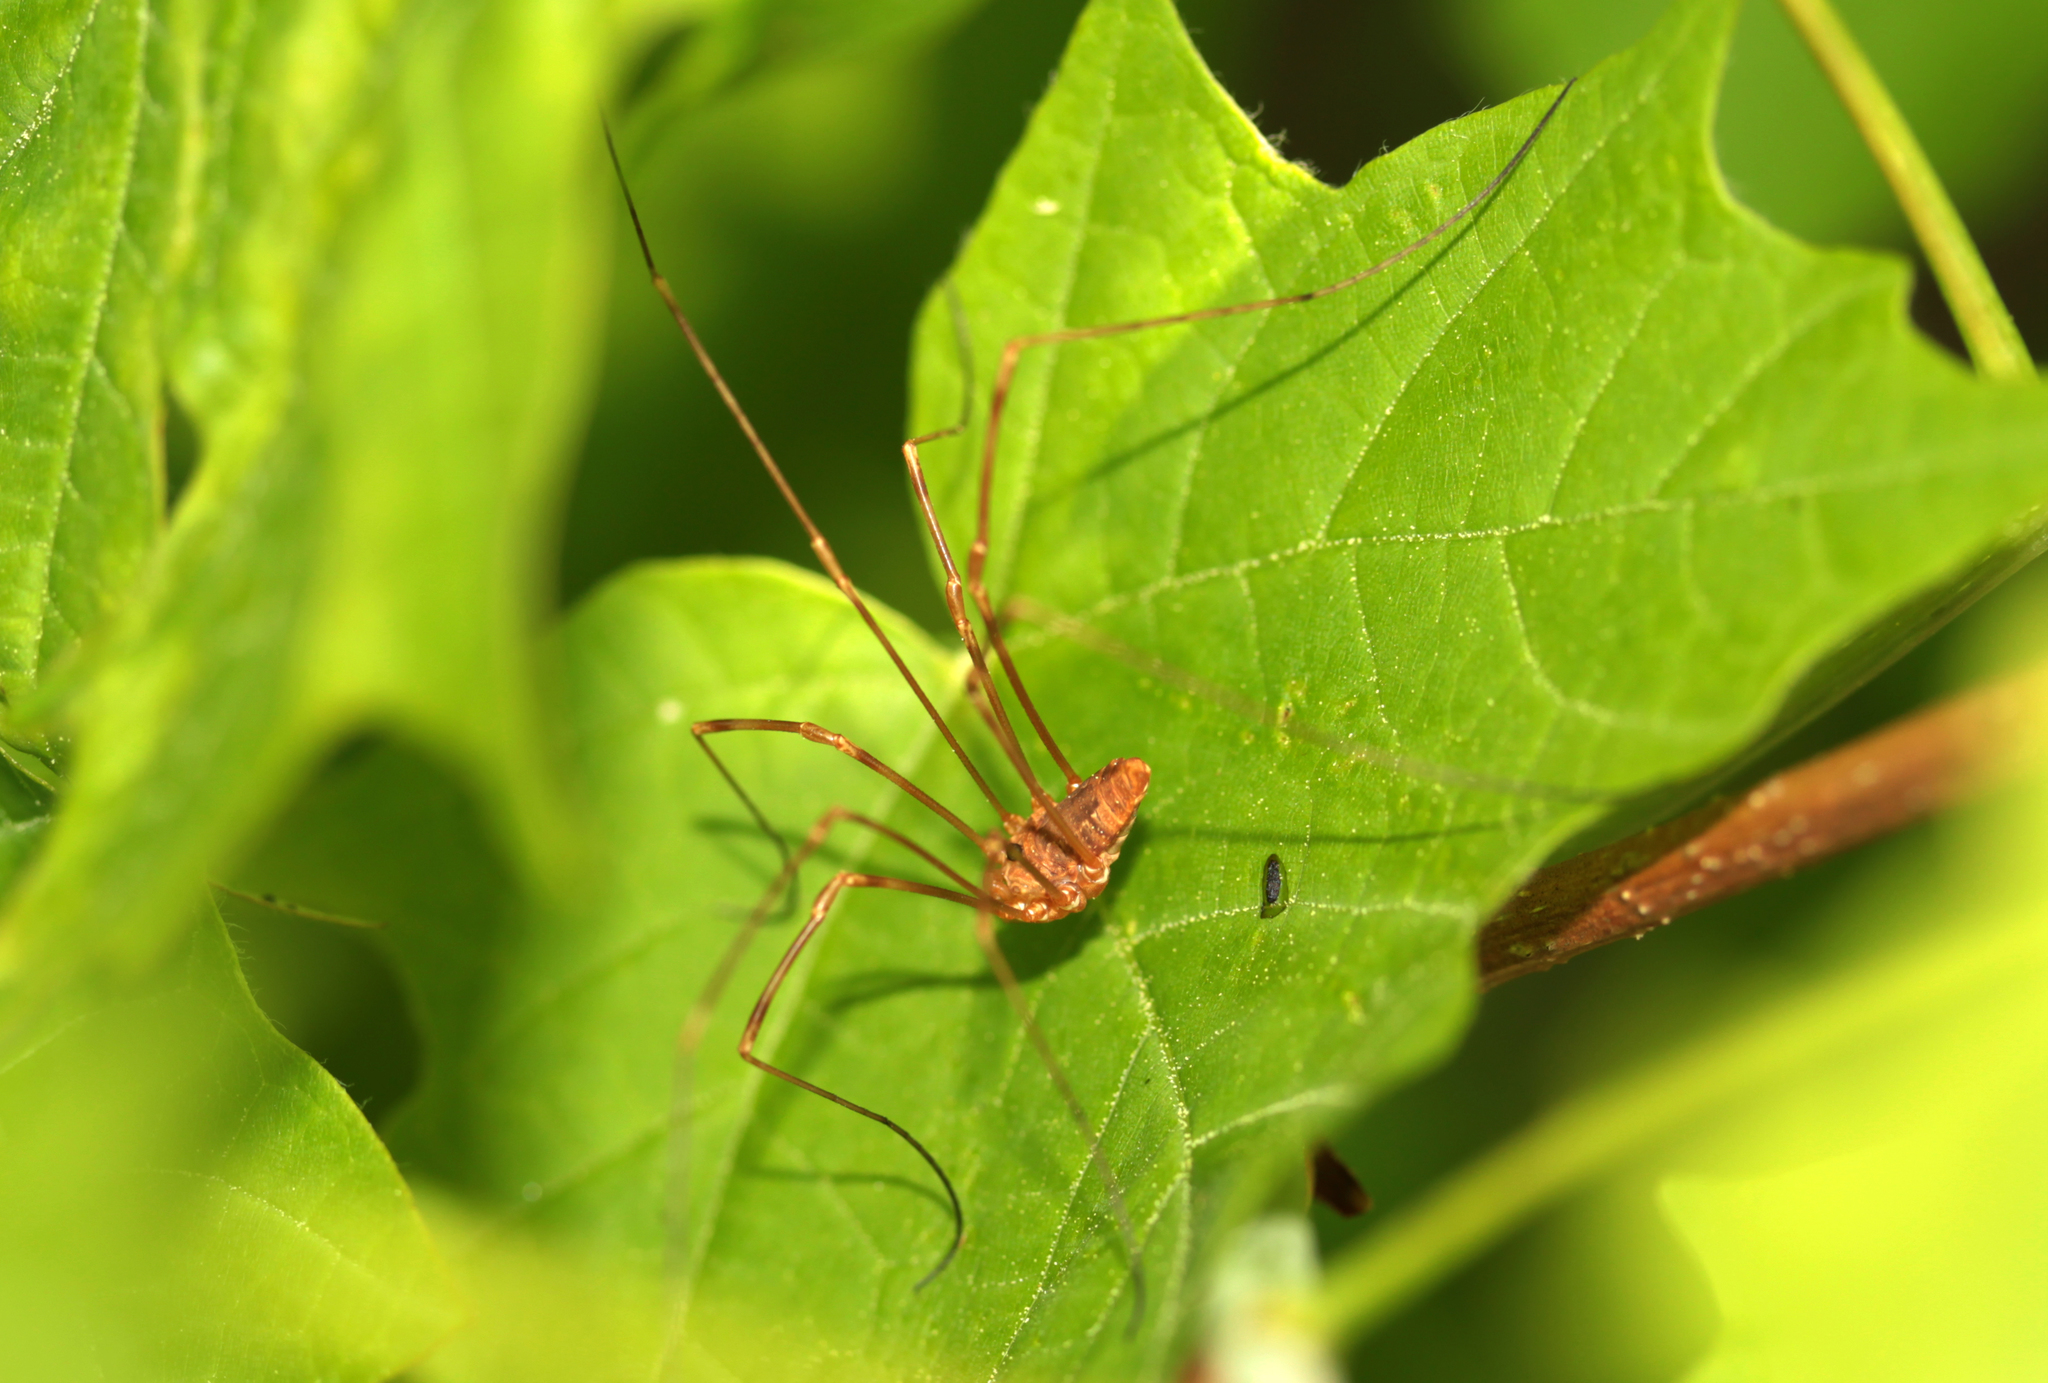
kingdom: Animalia
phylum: Arthropoda
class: Arachnida
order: Opiliones
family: Sclerosomatidae
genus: Leiobunum
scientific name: Leiobunum ventricosum
